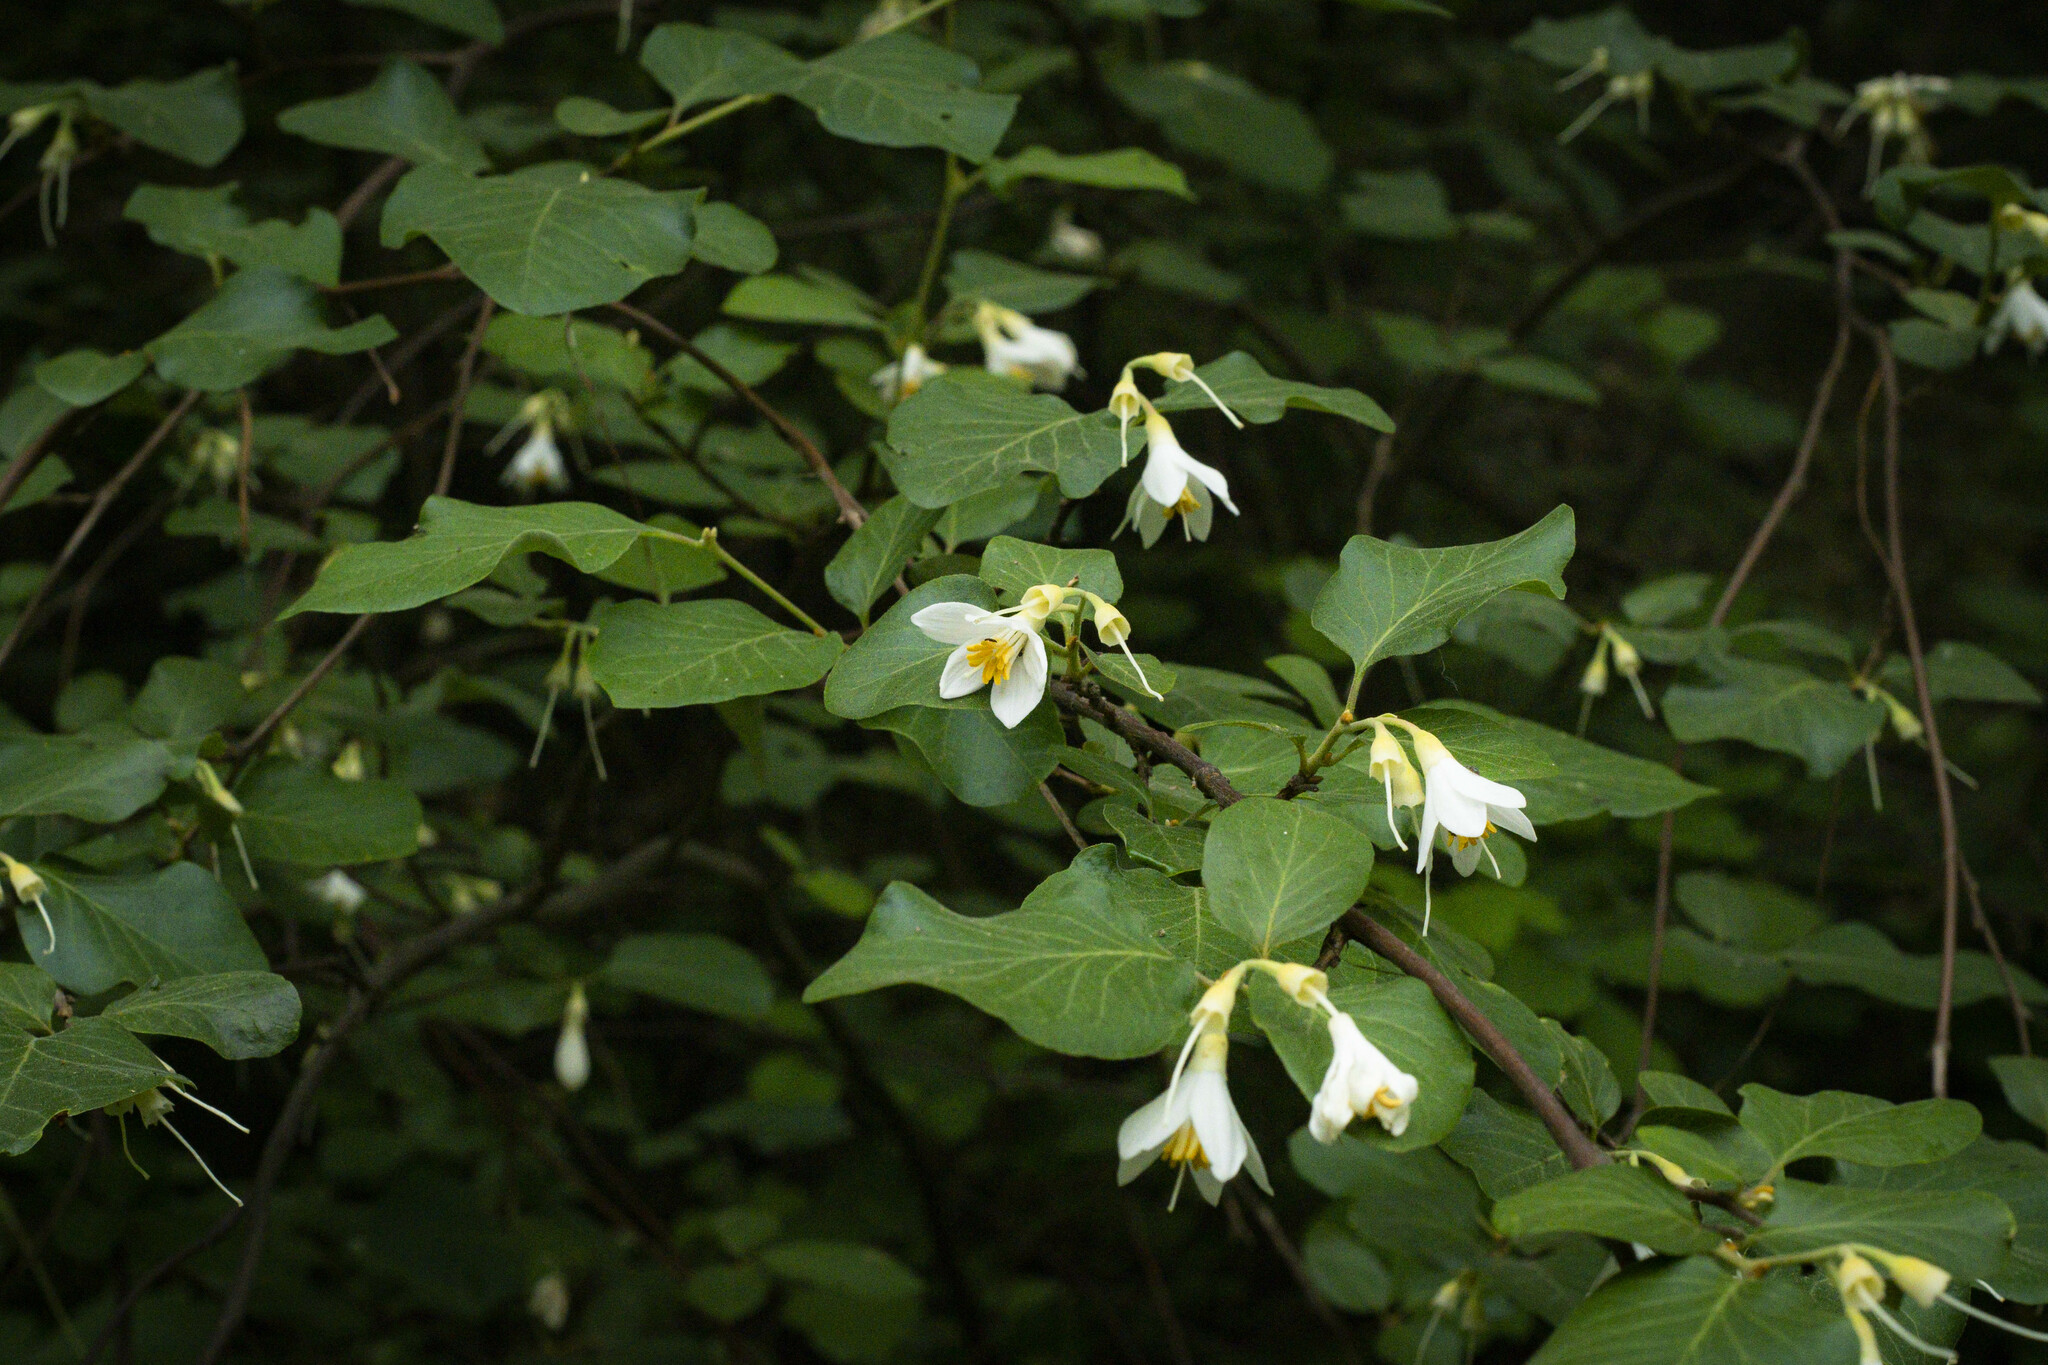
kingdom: Plantae
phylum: Tracheophyta
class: Magnoliopsida
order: Ericales
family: Styracaceae
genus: Styrax
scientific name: Styrax redivivus
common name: California styrax
